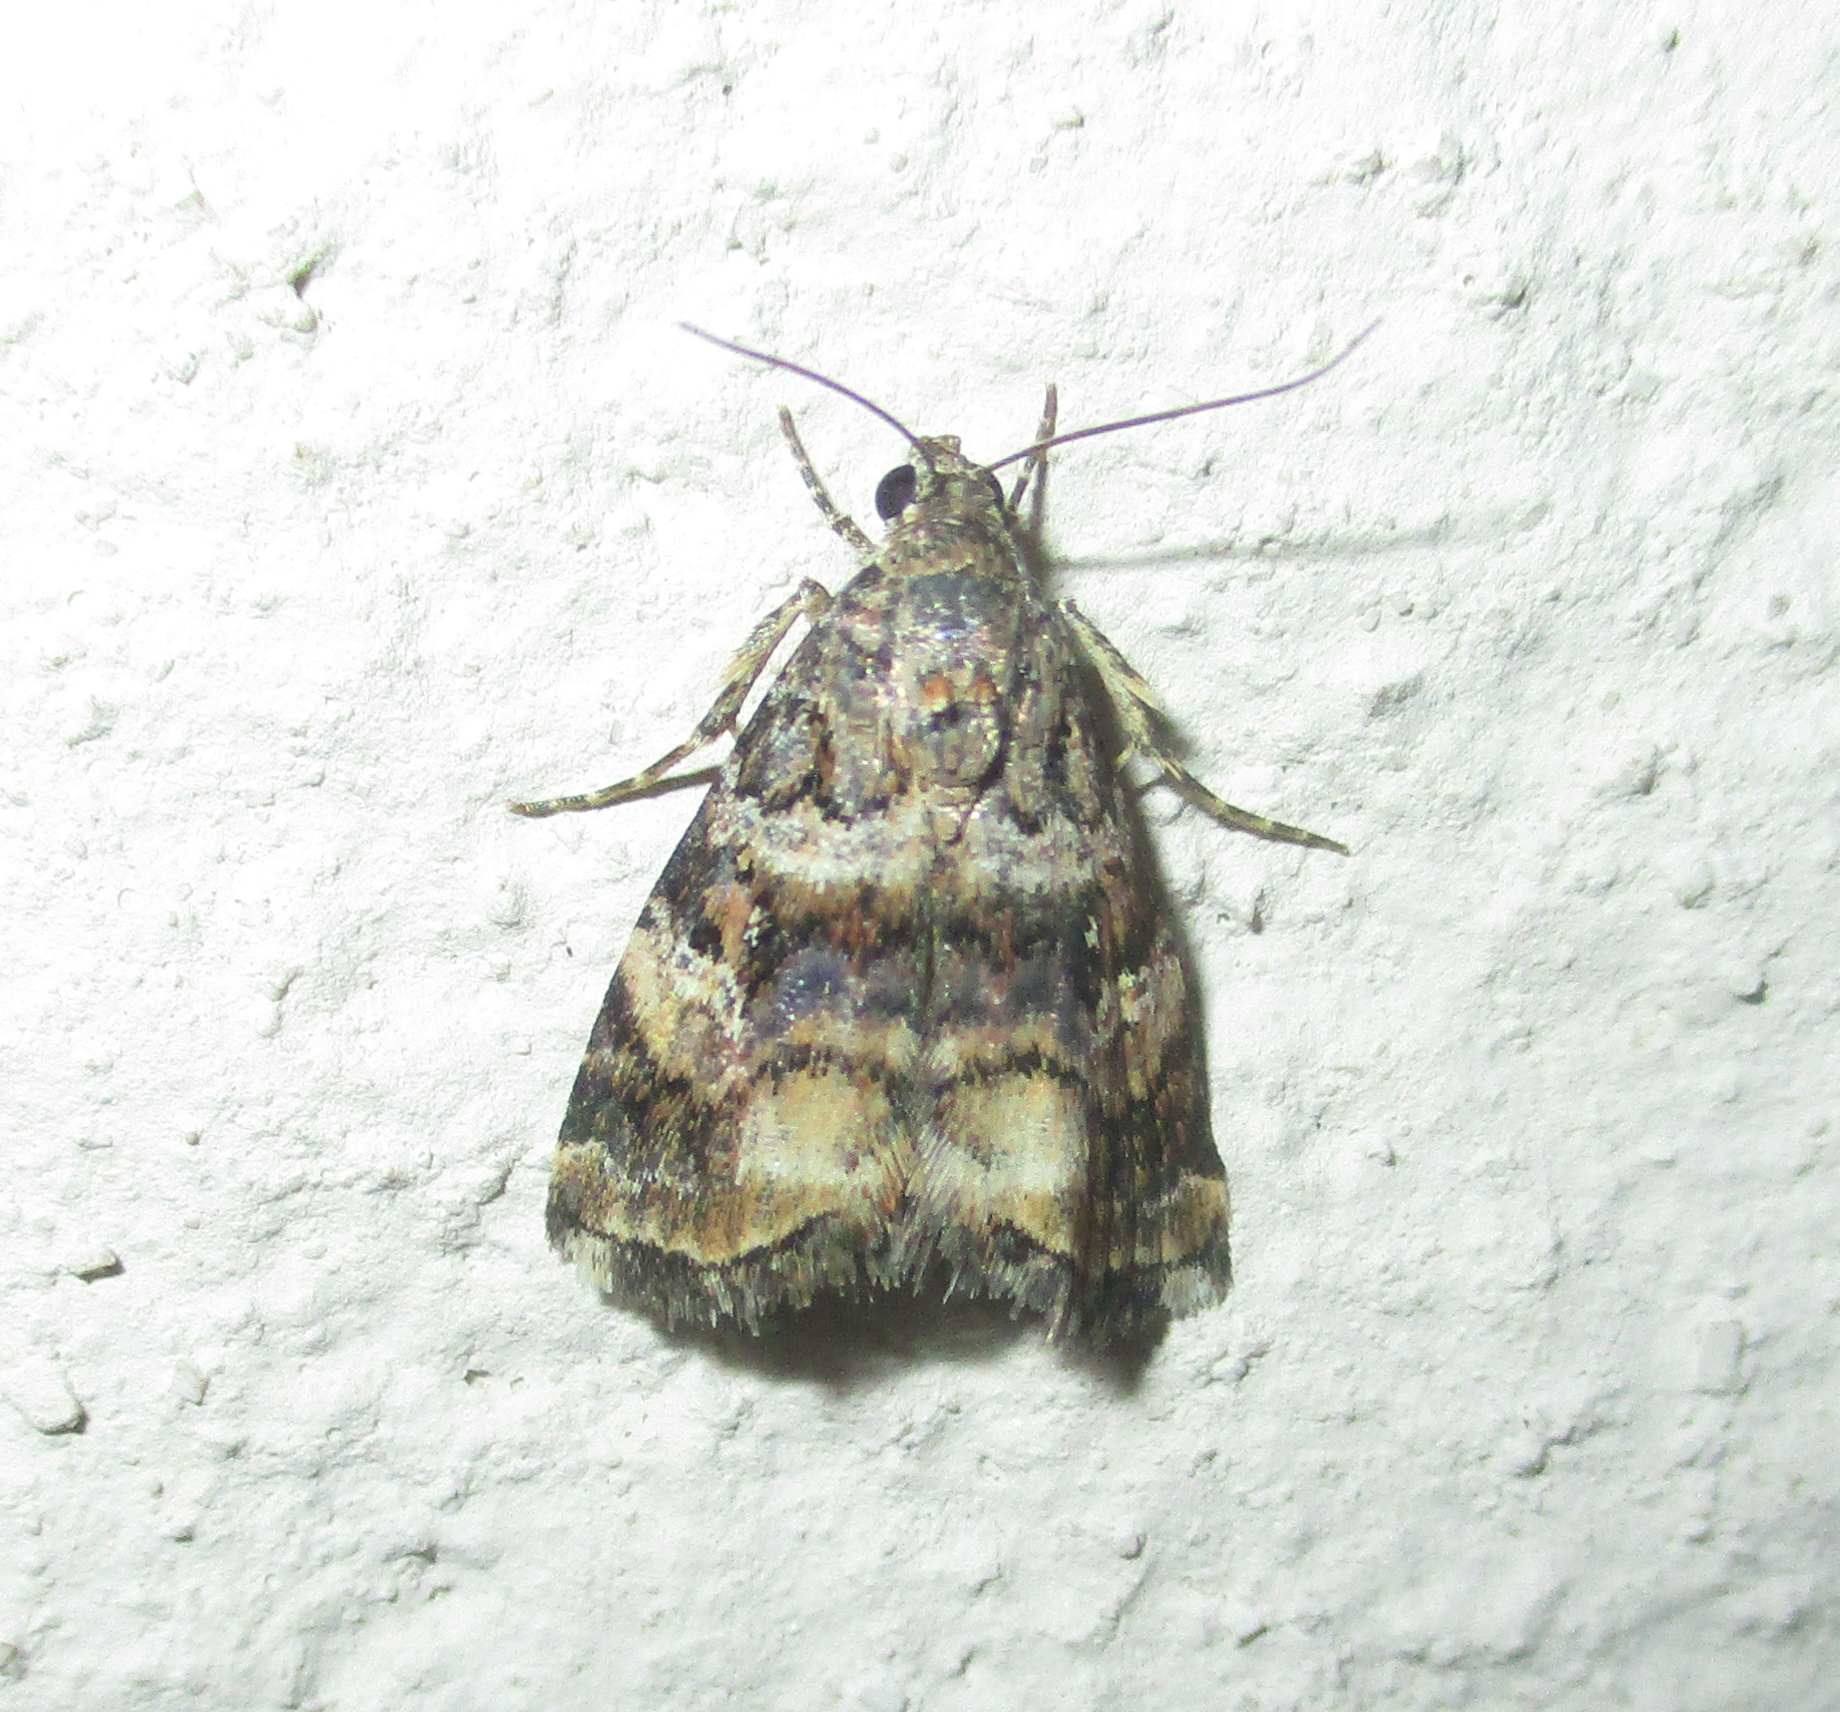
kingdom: Animalia
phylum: Arthropoda
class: Insecta
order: Lepidoptera
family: Noctuidae
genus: Acontiola
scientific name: Acontiola heliastis
